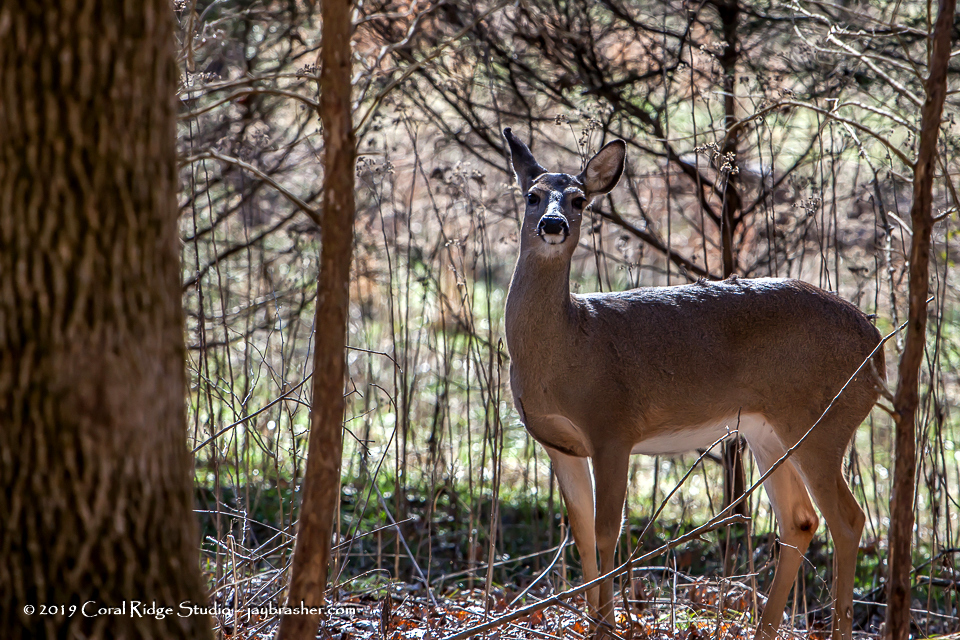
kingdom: Animalia
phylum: Chordata
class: Mammalia
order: Artiodactyla
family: Cervidae
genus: Odocoileus
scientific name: Odocoileus virginianus
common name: White-tailed deer
